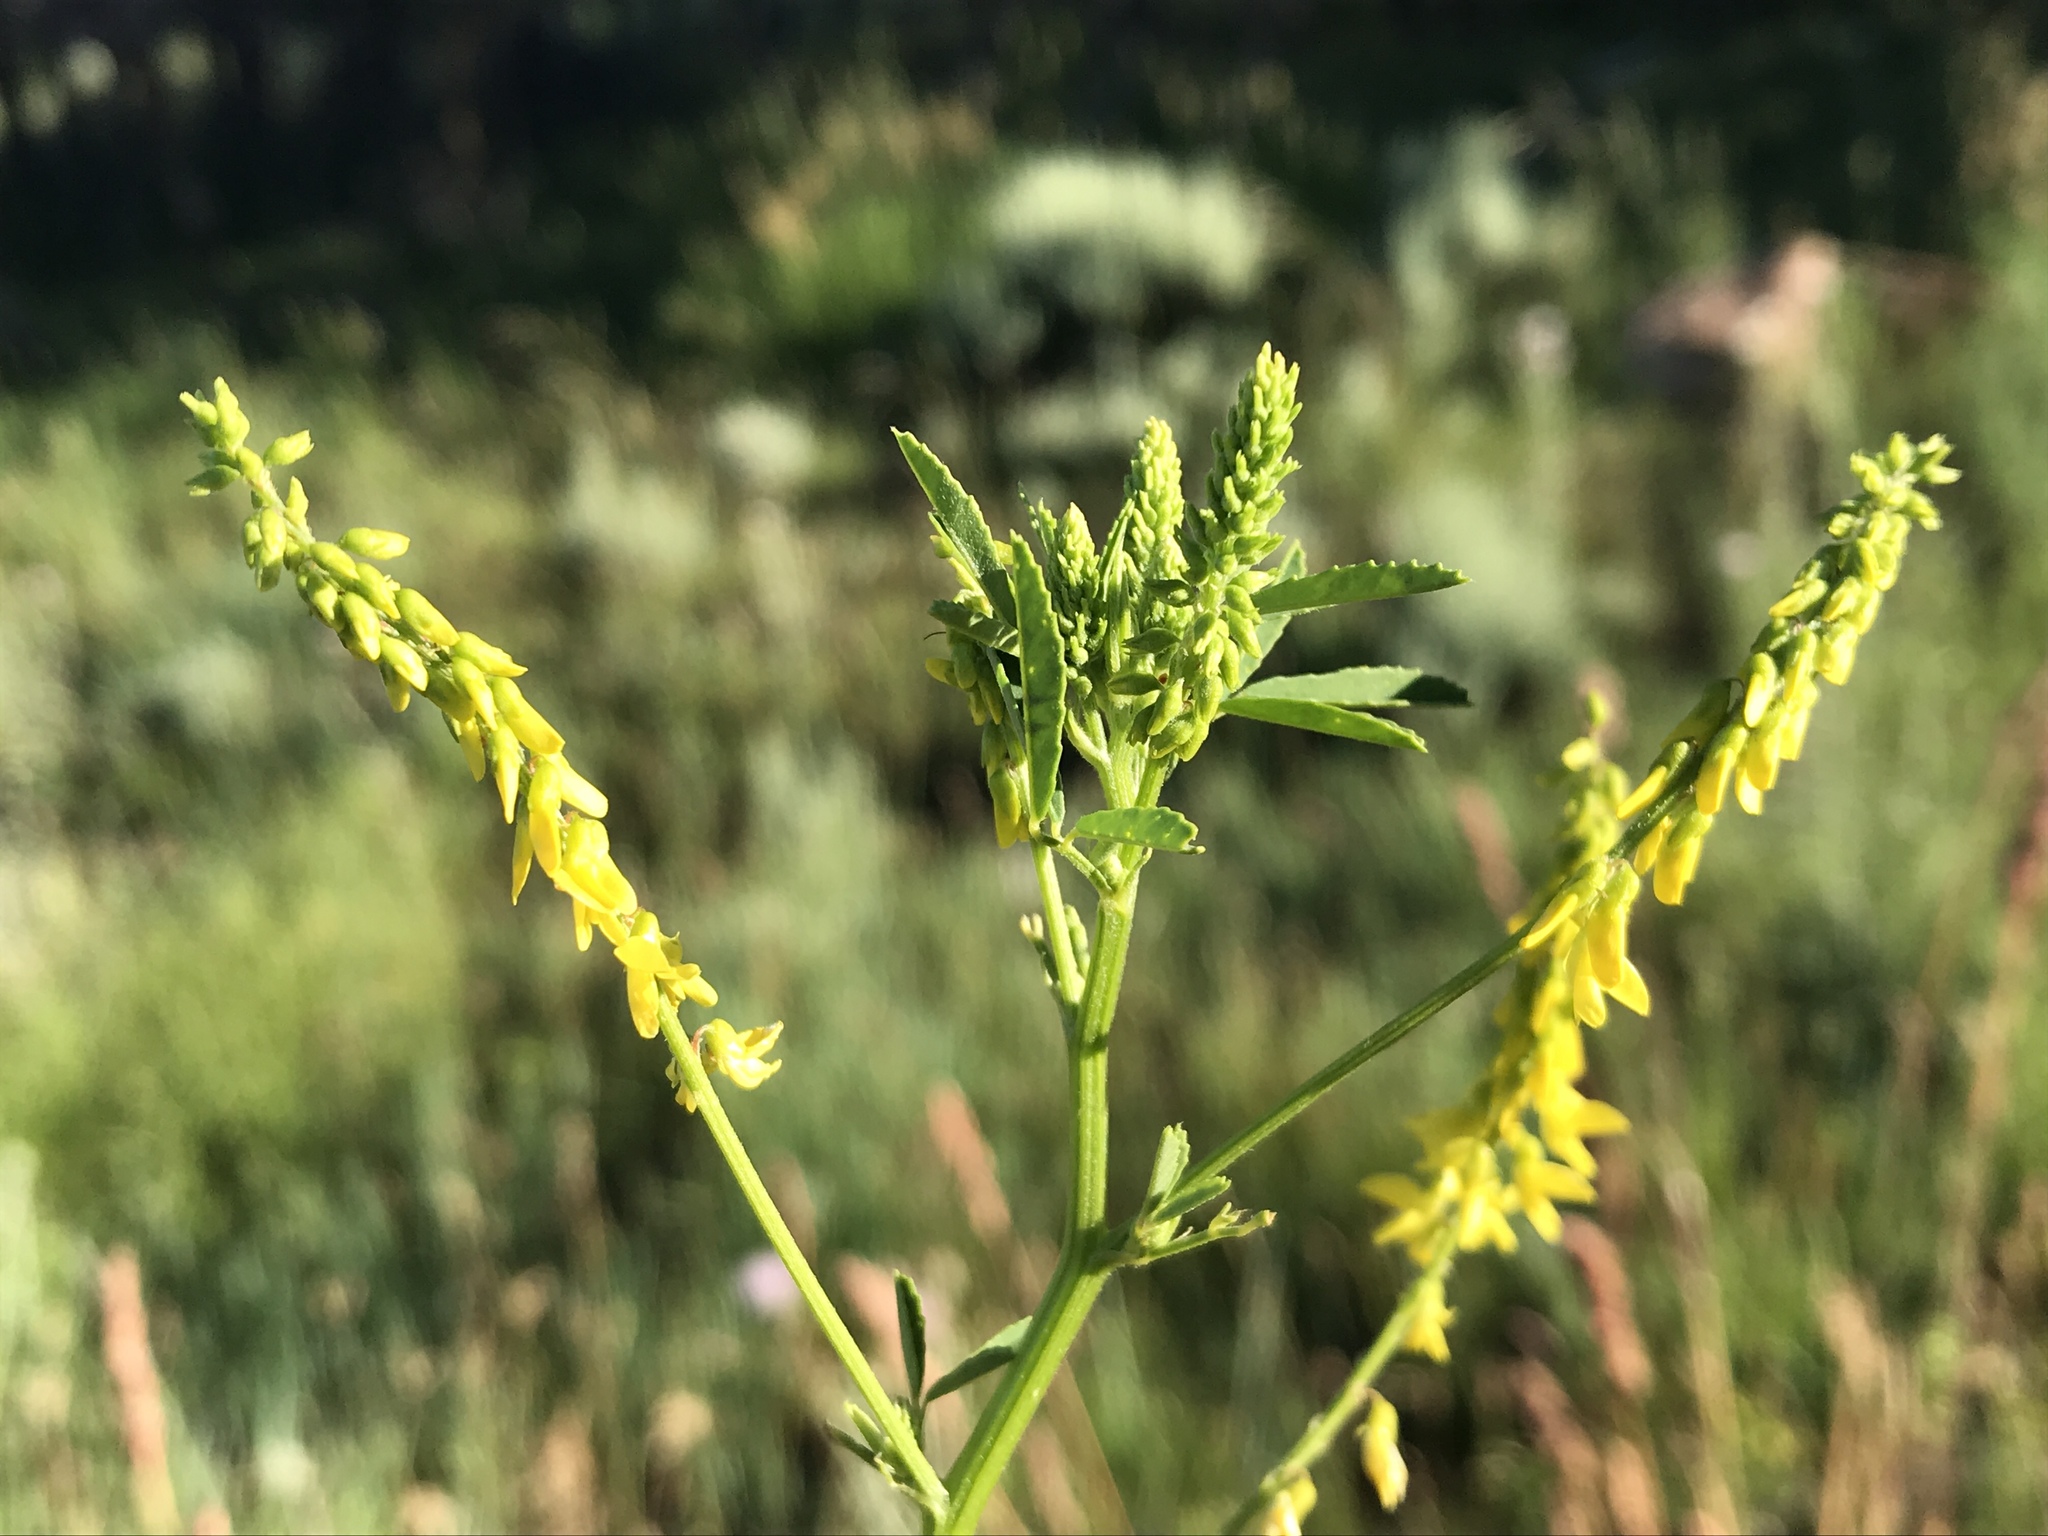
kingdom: Plantae
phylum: Tracheophyta
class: Magnoliopsida
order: Fabales
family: Fabaceae
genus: Melilotus
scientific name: Melilotus officinalis
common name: Sweetclover
